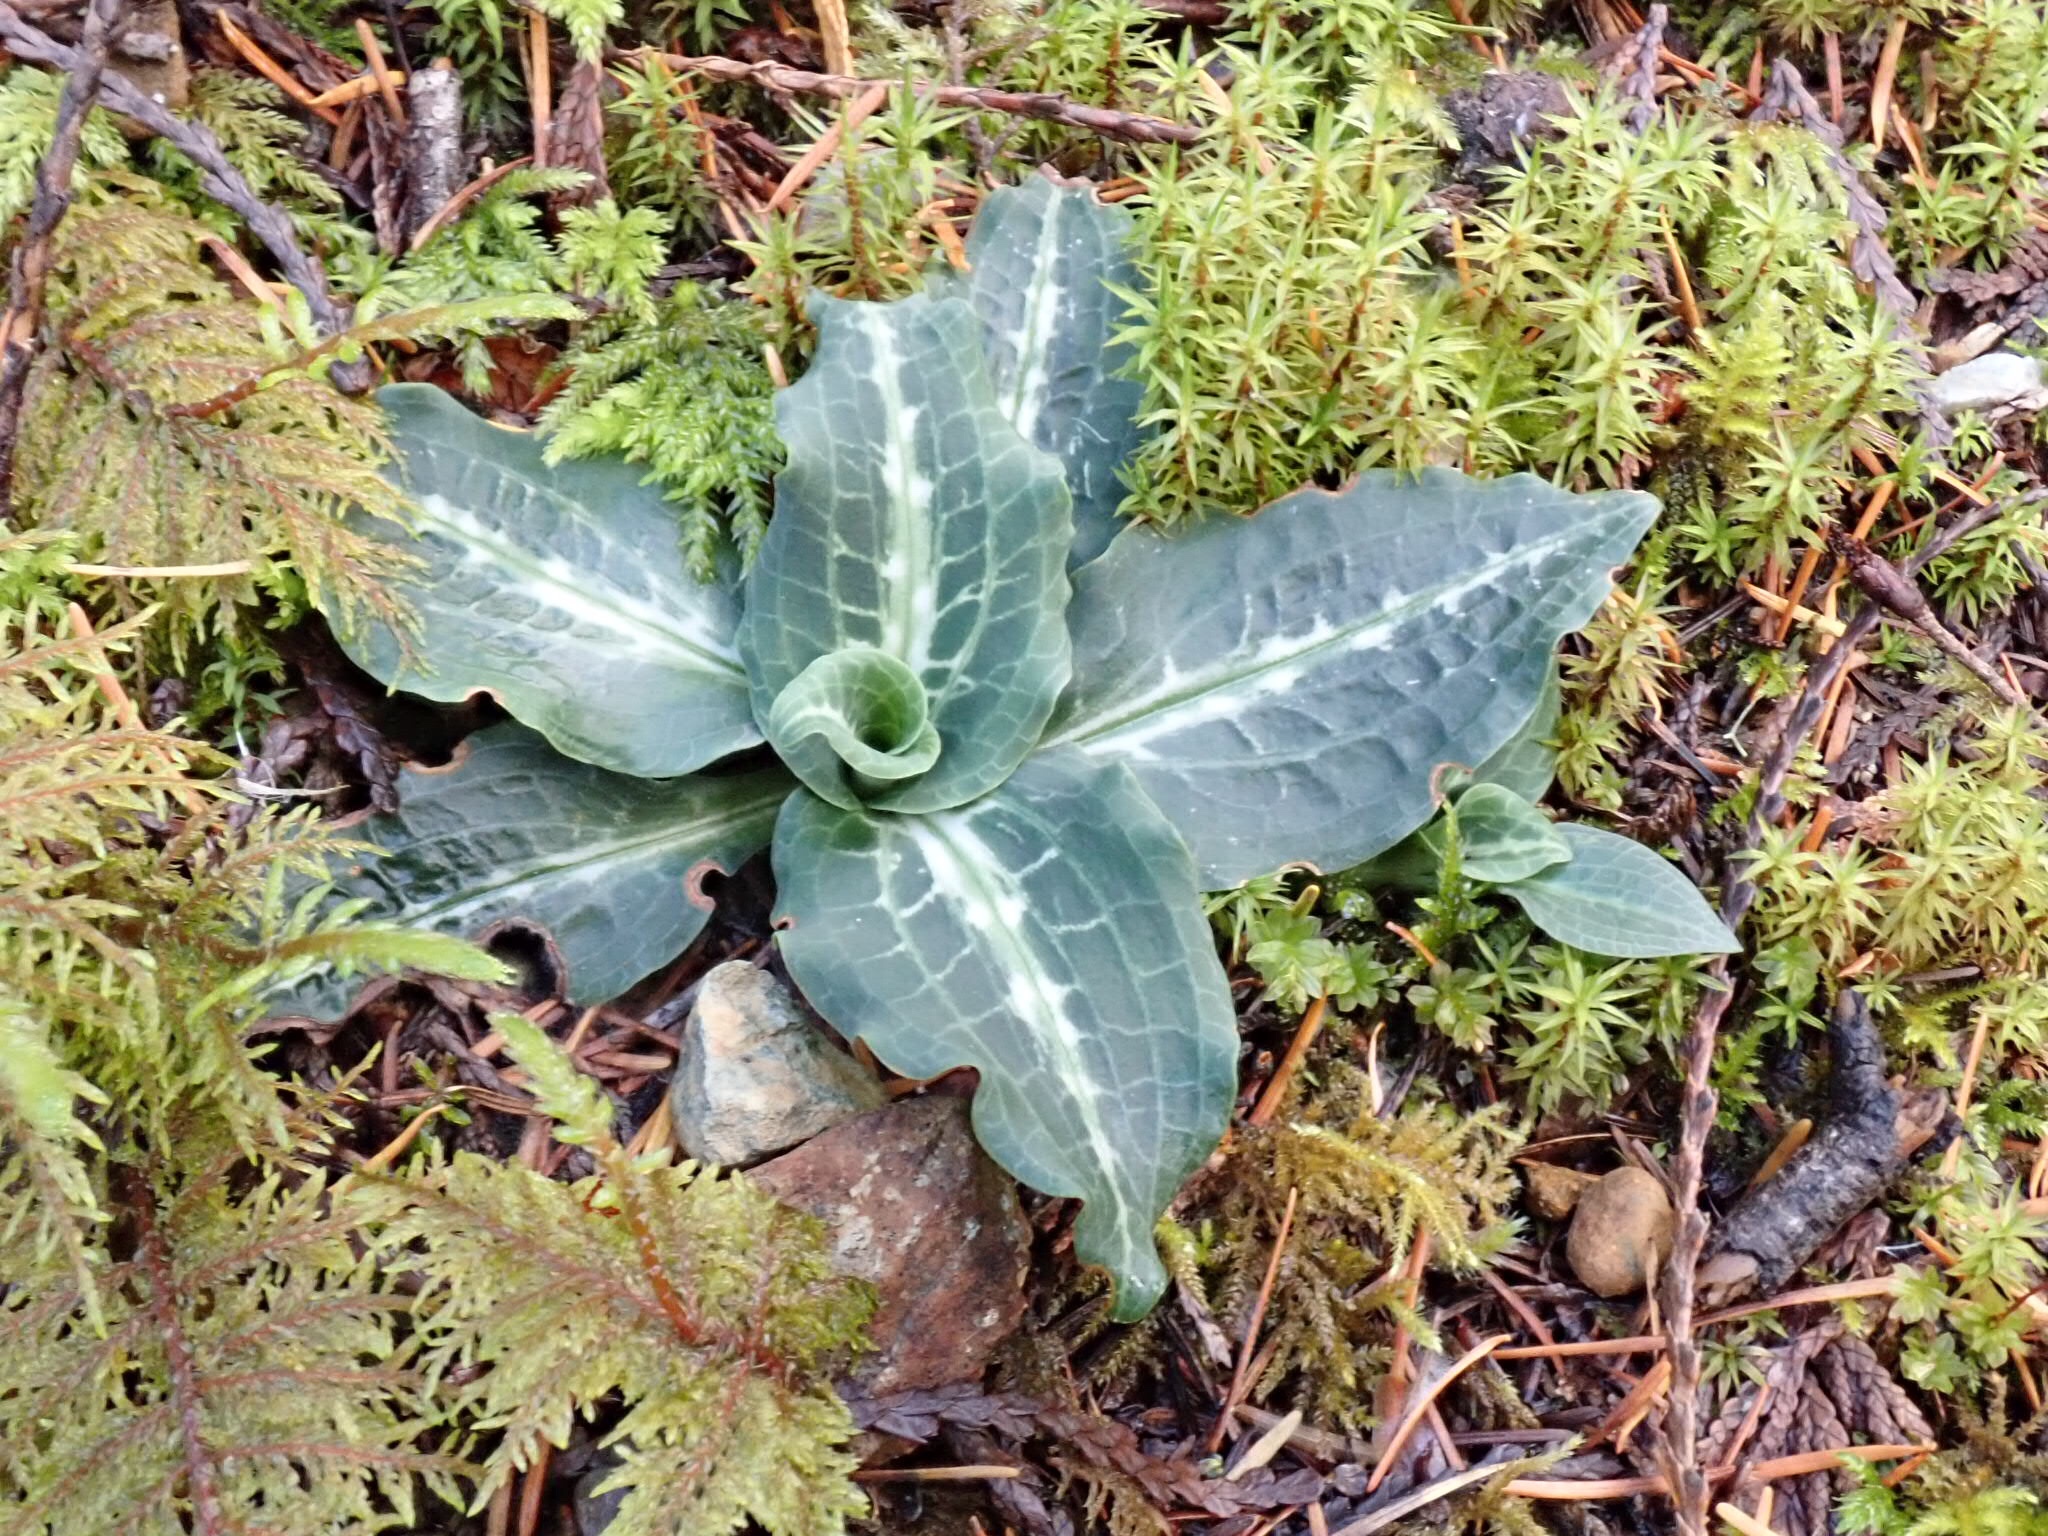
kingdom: Plantae
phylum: Tracheophyta
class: Liliopsida
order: Asparagales
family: Orchidaceae
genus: Goodyera
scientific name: Goodyera oblongifolia
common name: Giant rattlesnake-plantain
